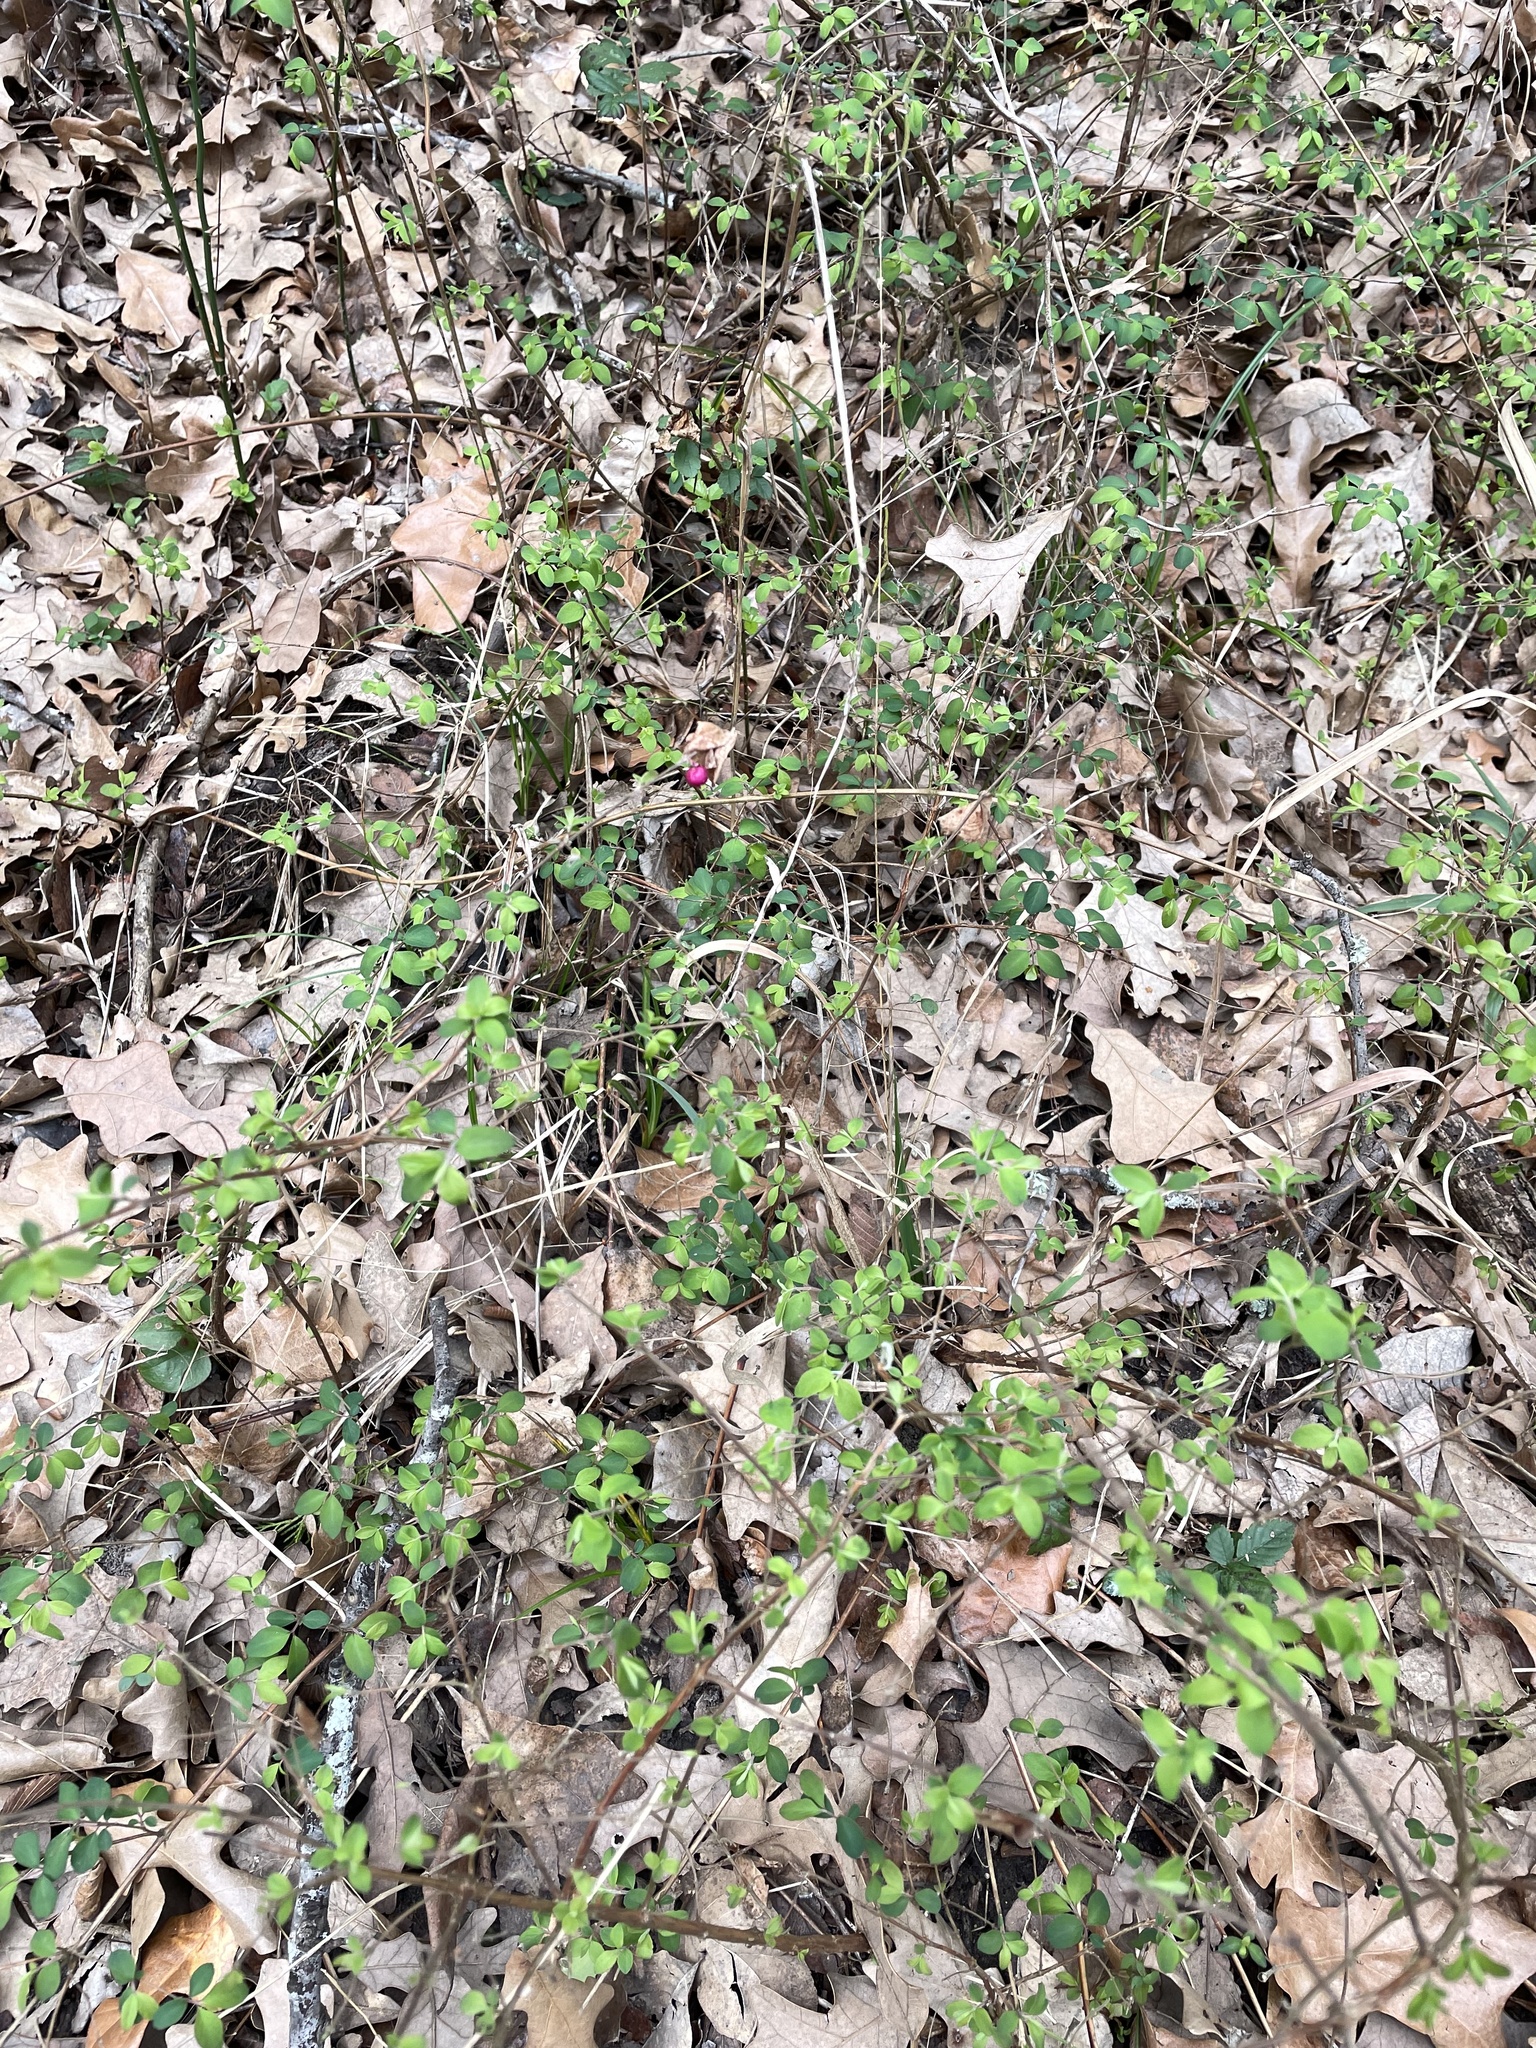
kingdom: Plantae
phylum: Tracheophyta
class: Magnoliopsida
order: Dipsacales
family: Caprifoliaceae
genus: Symphoricarpos
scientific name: Symphoricarpos orbiculatus
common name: Coralberry
